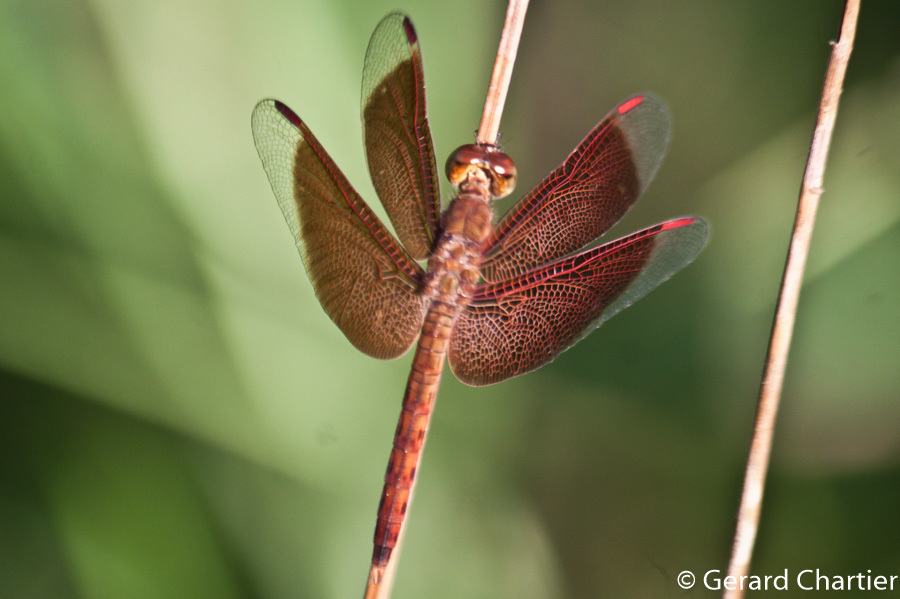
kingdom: Animalia
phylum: Arthropoda
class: Insecta
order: Odonata
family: Libellulidae
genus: Neurothemis
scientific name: Neurothemis fluctuans
